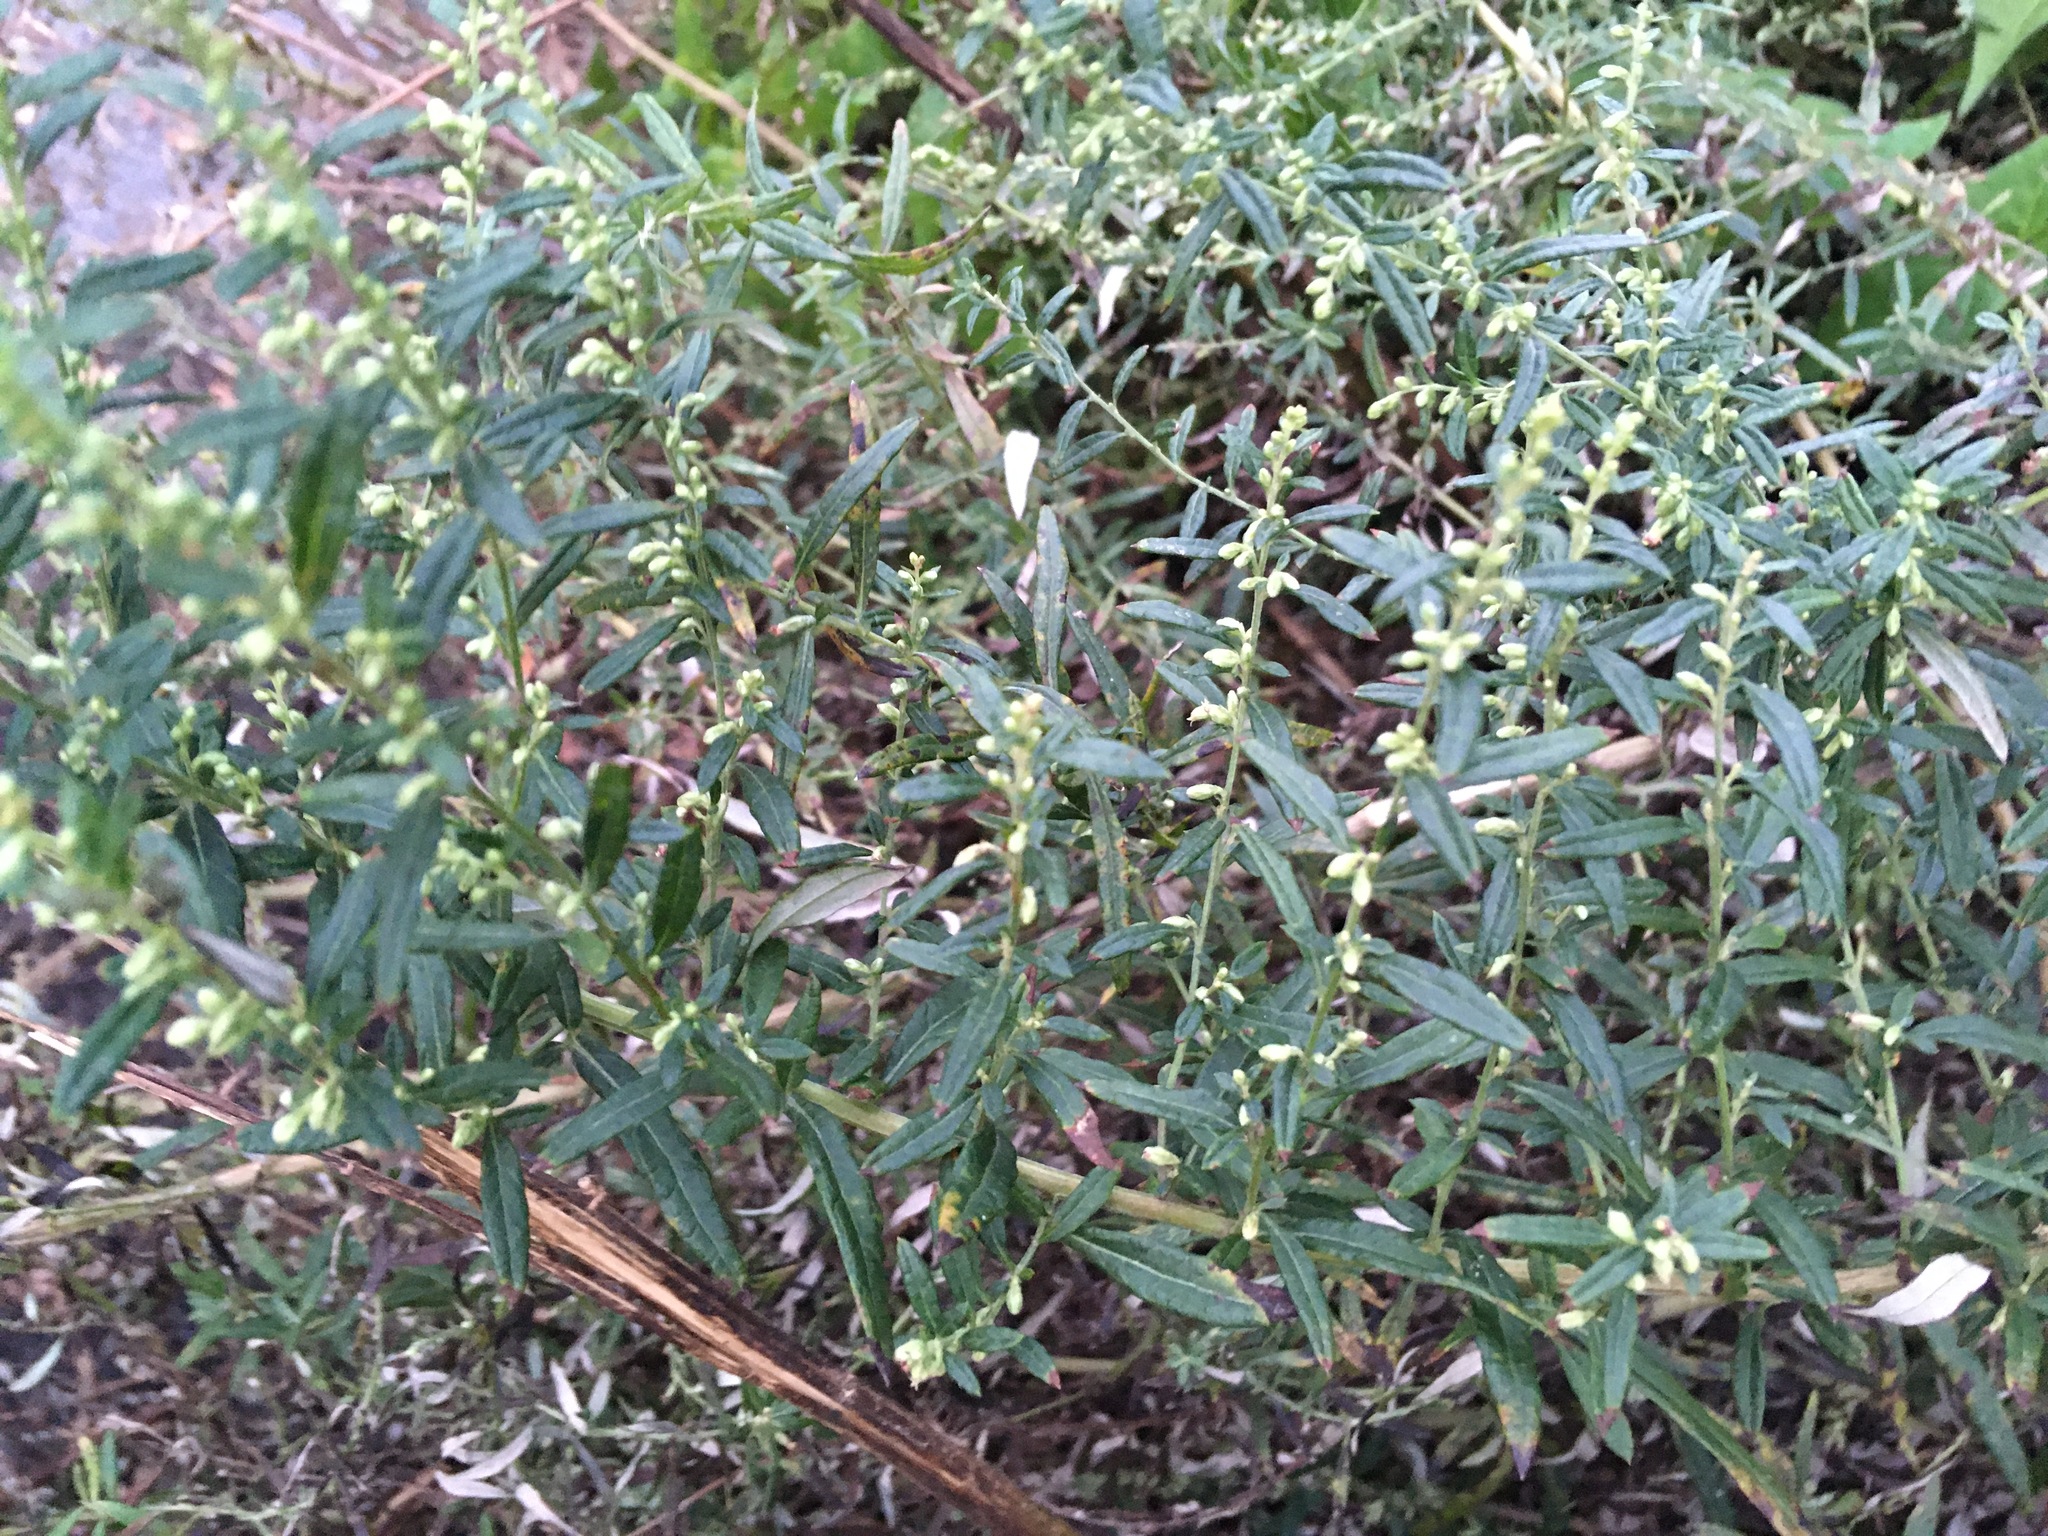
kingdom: Plantae
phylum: Tracheophyta
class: Magnoliopsida
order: Asterales
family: Asteraceae
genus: Artemisia
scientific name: Artemisia vulgaris
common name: Mugwort
